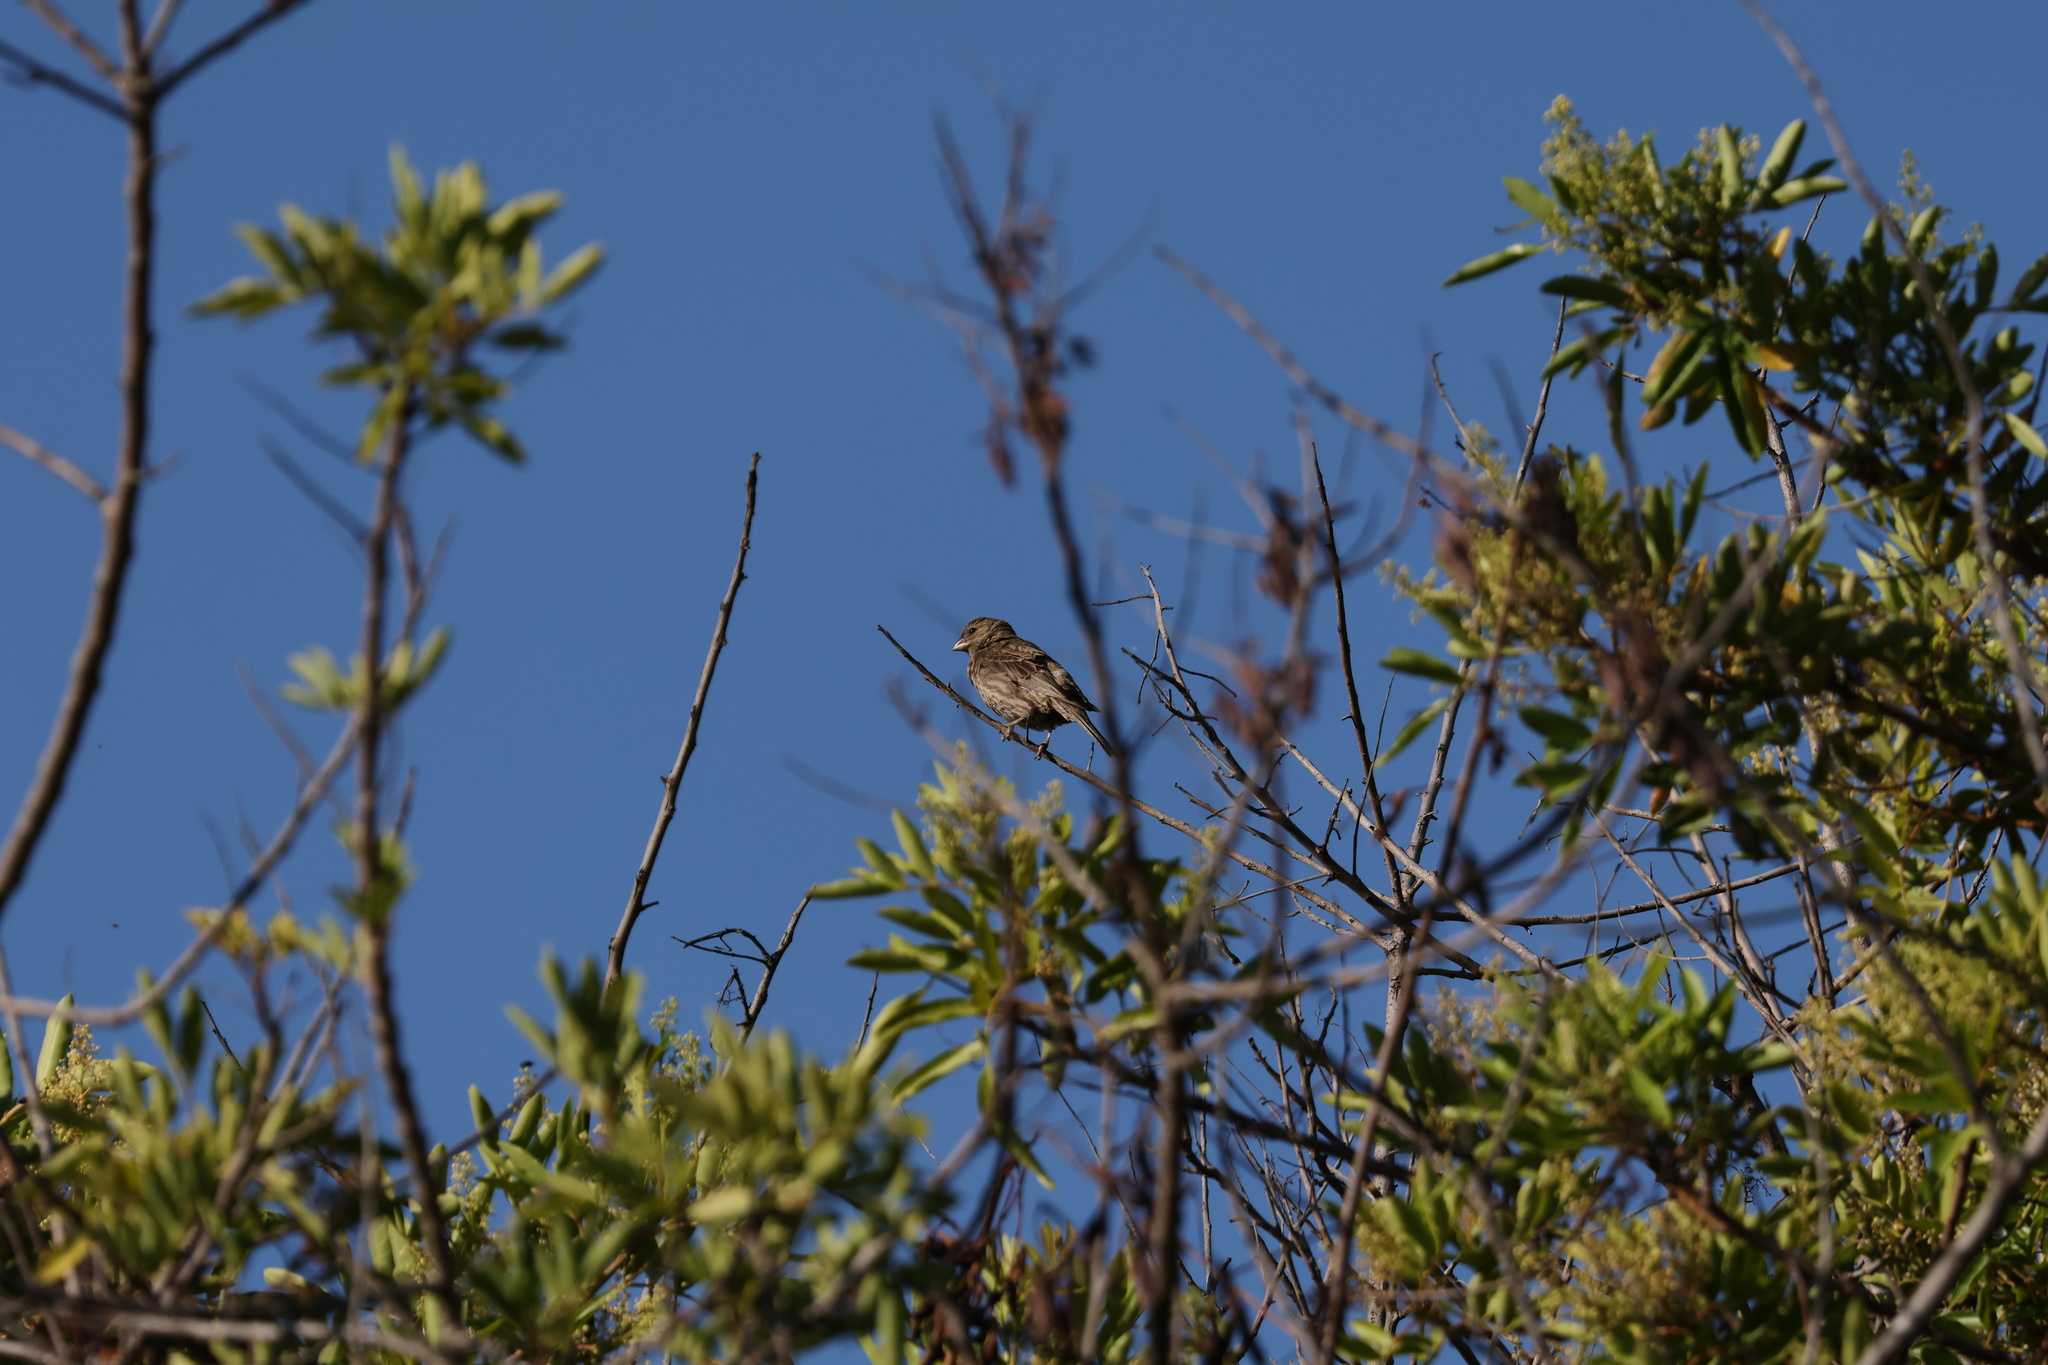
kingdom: Animalia
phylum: Chordata
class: Aves
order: Passeriformes
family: Fringillidae
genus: Haemorhous
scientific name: Haemorhous mexicanus
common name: House finch
